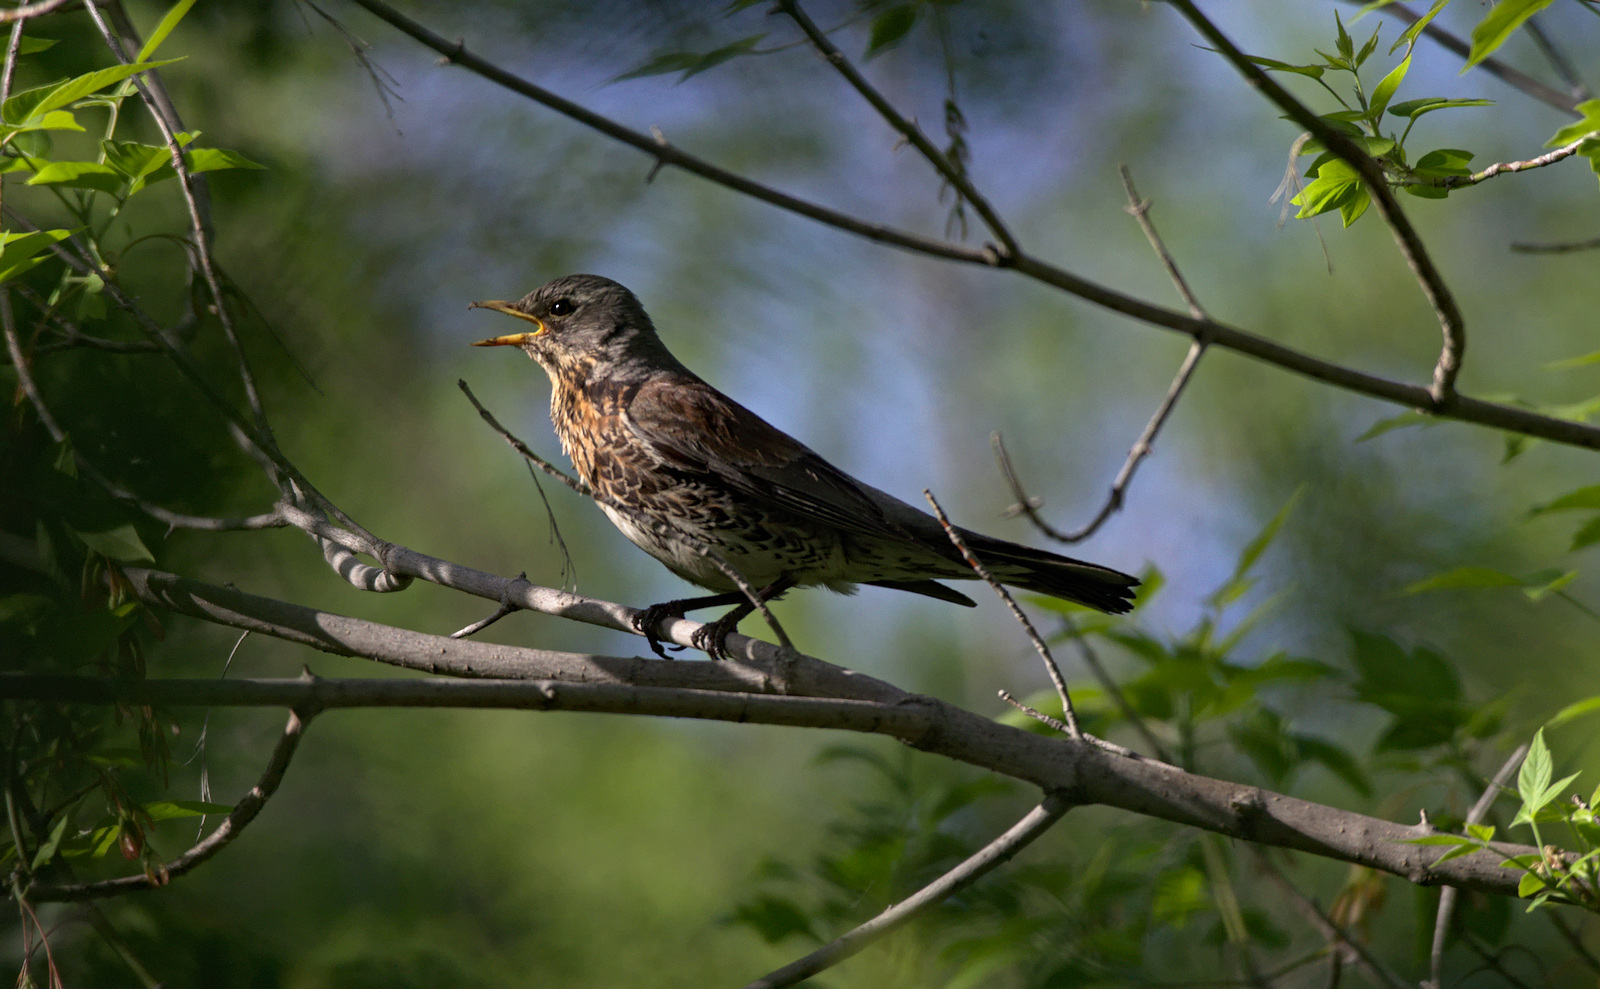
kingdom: Animalia
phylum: Chordata
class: Aves
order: Passeriformes
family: Turdidae
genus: Turdus
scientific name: Turdus pilaris
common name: Fieldfare
